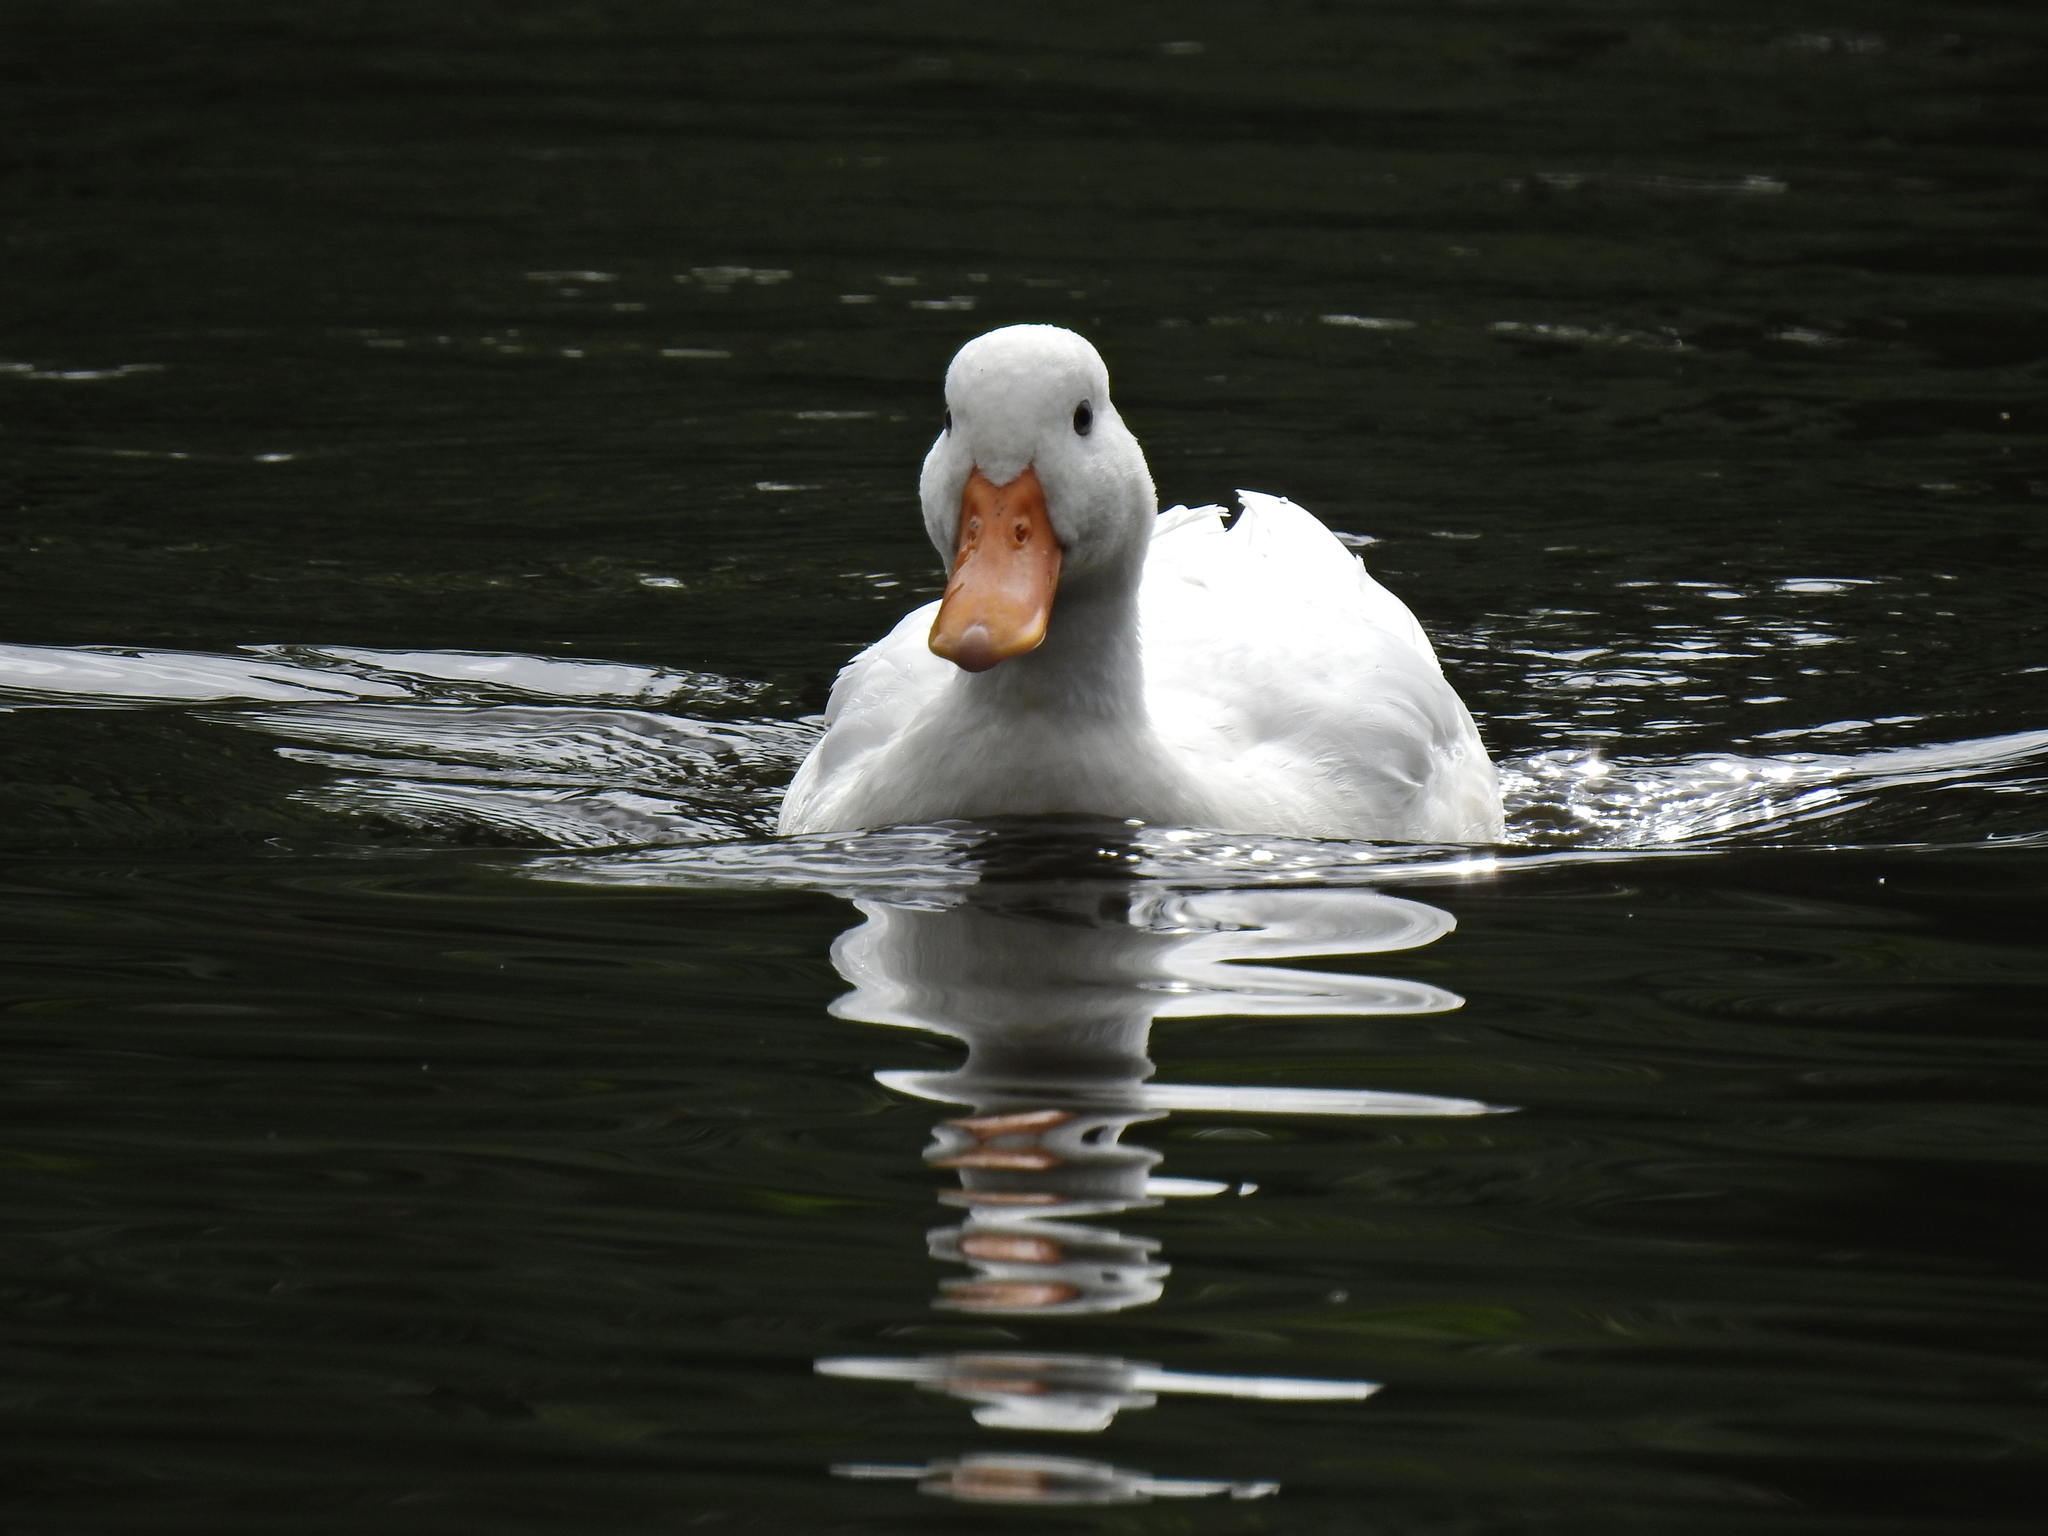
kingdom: Animalia
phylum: Chordata
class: Aves
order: Anseriformes
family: Anatidae
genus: Anas
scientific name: Anas platyrhynchos
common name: Mallard
